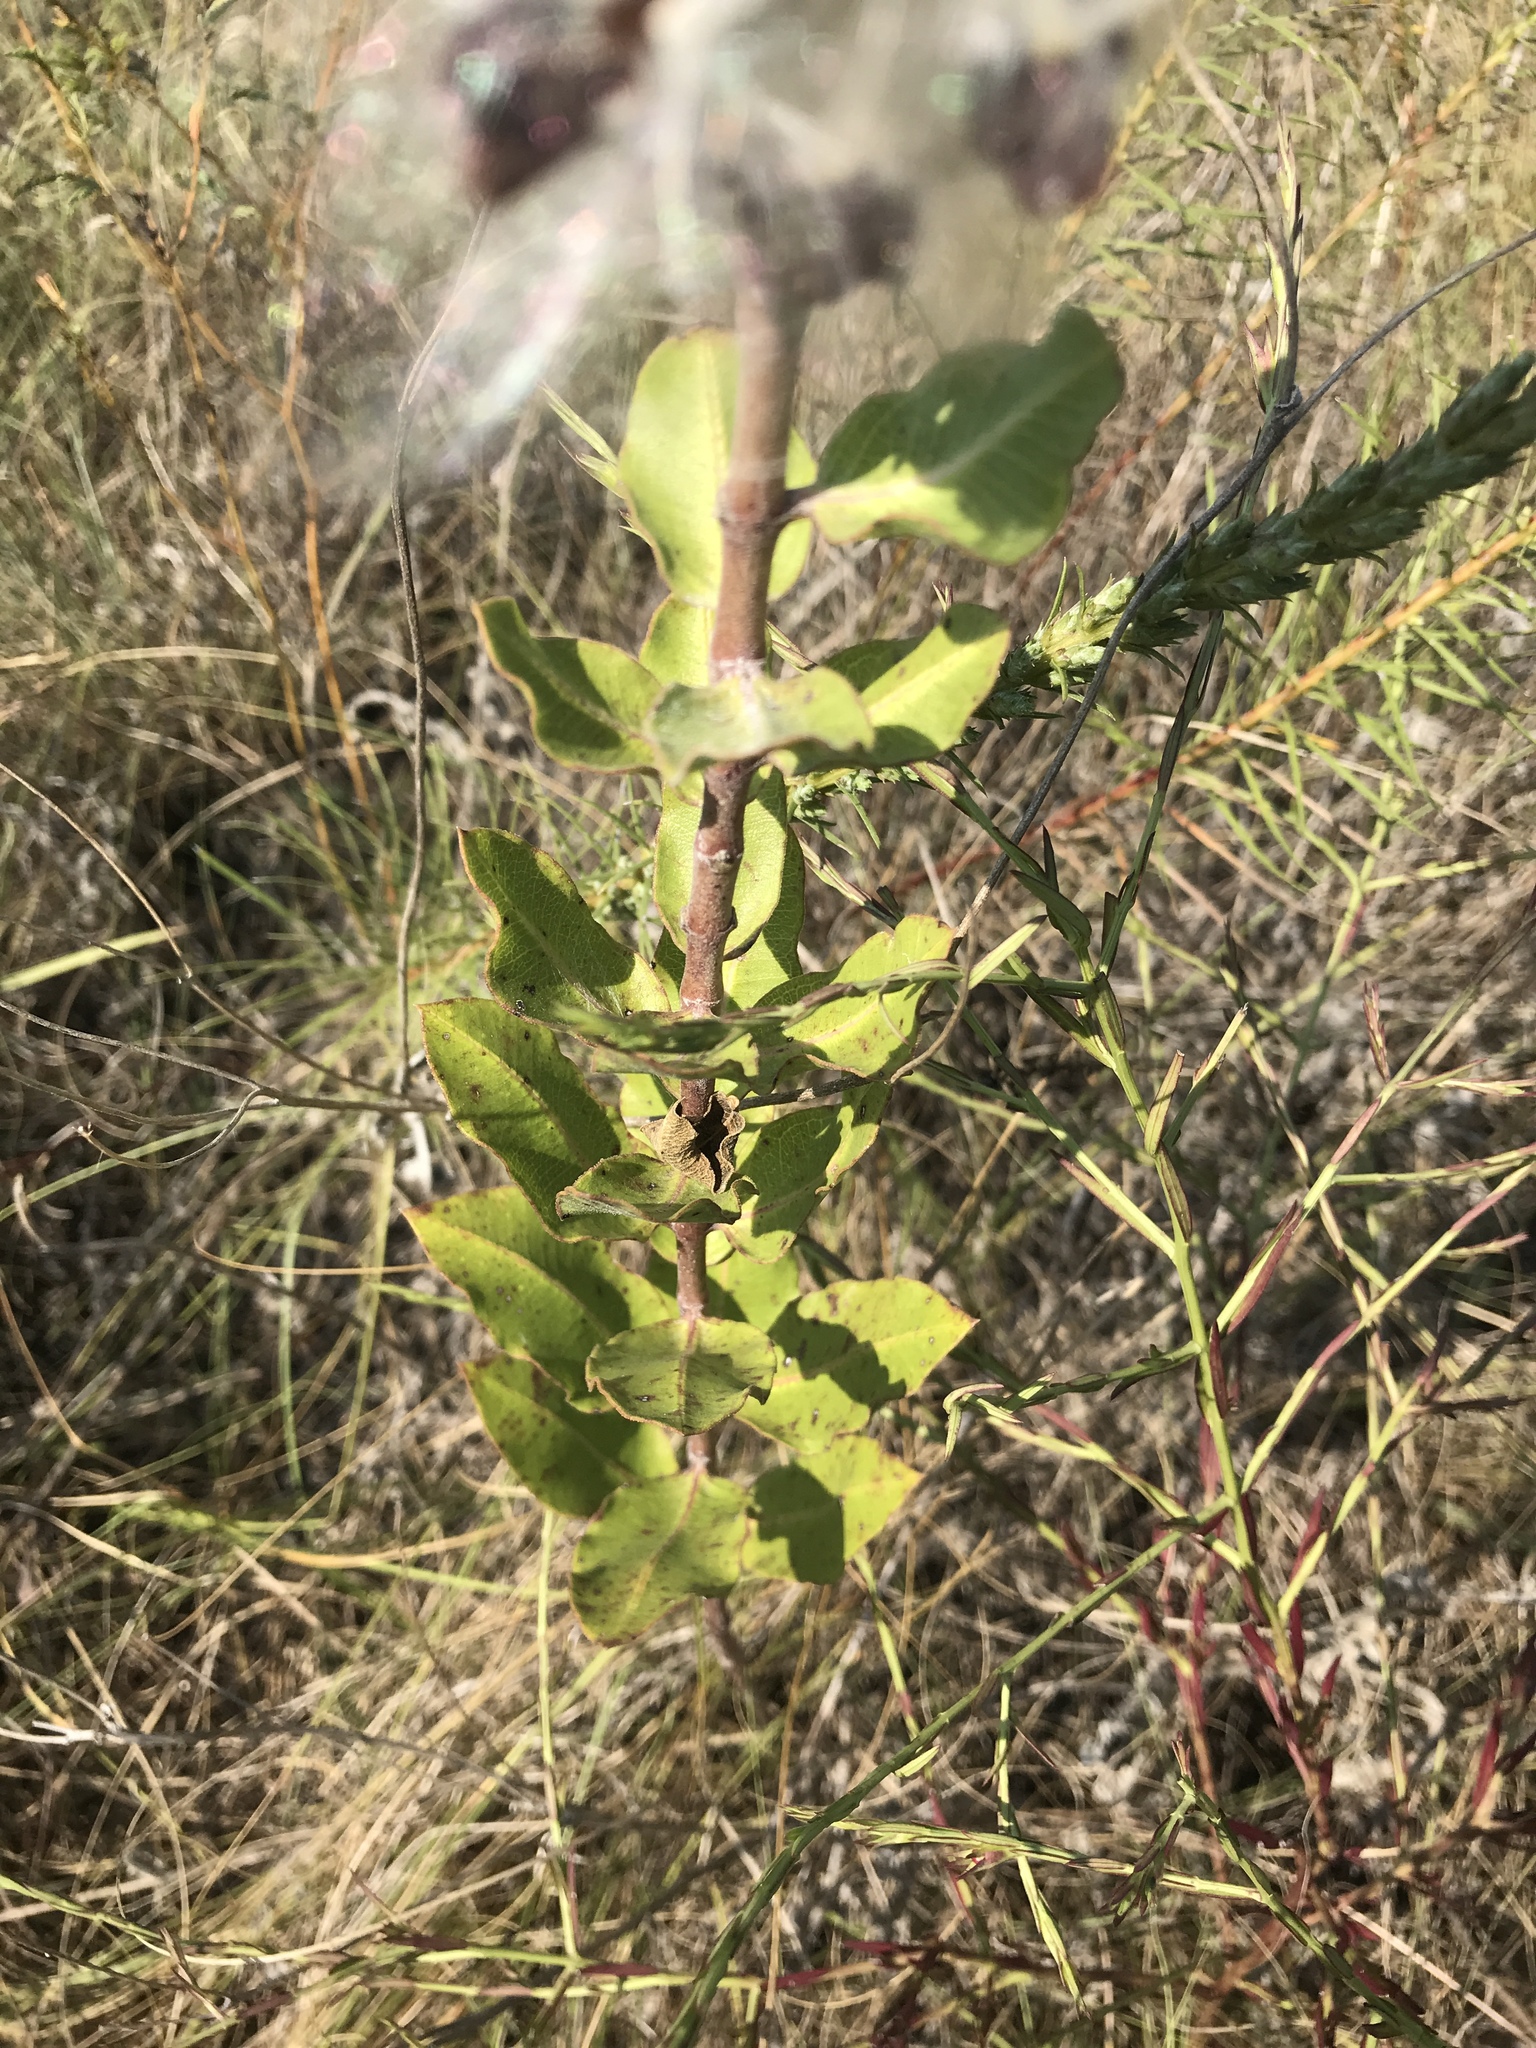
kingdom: Plantae
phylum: Tracheophyta
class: Magnoliopsida
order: Gentianales
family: Apocynaceae
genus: Asclepias
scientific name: Asclepias viridiflora
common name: Green comet milkweed
